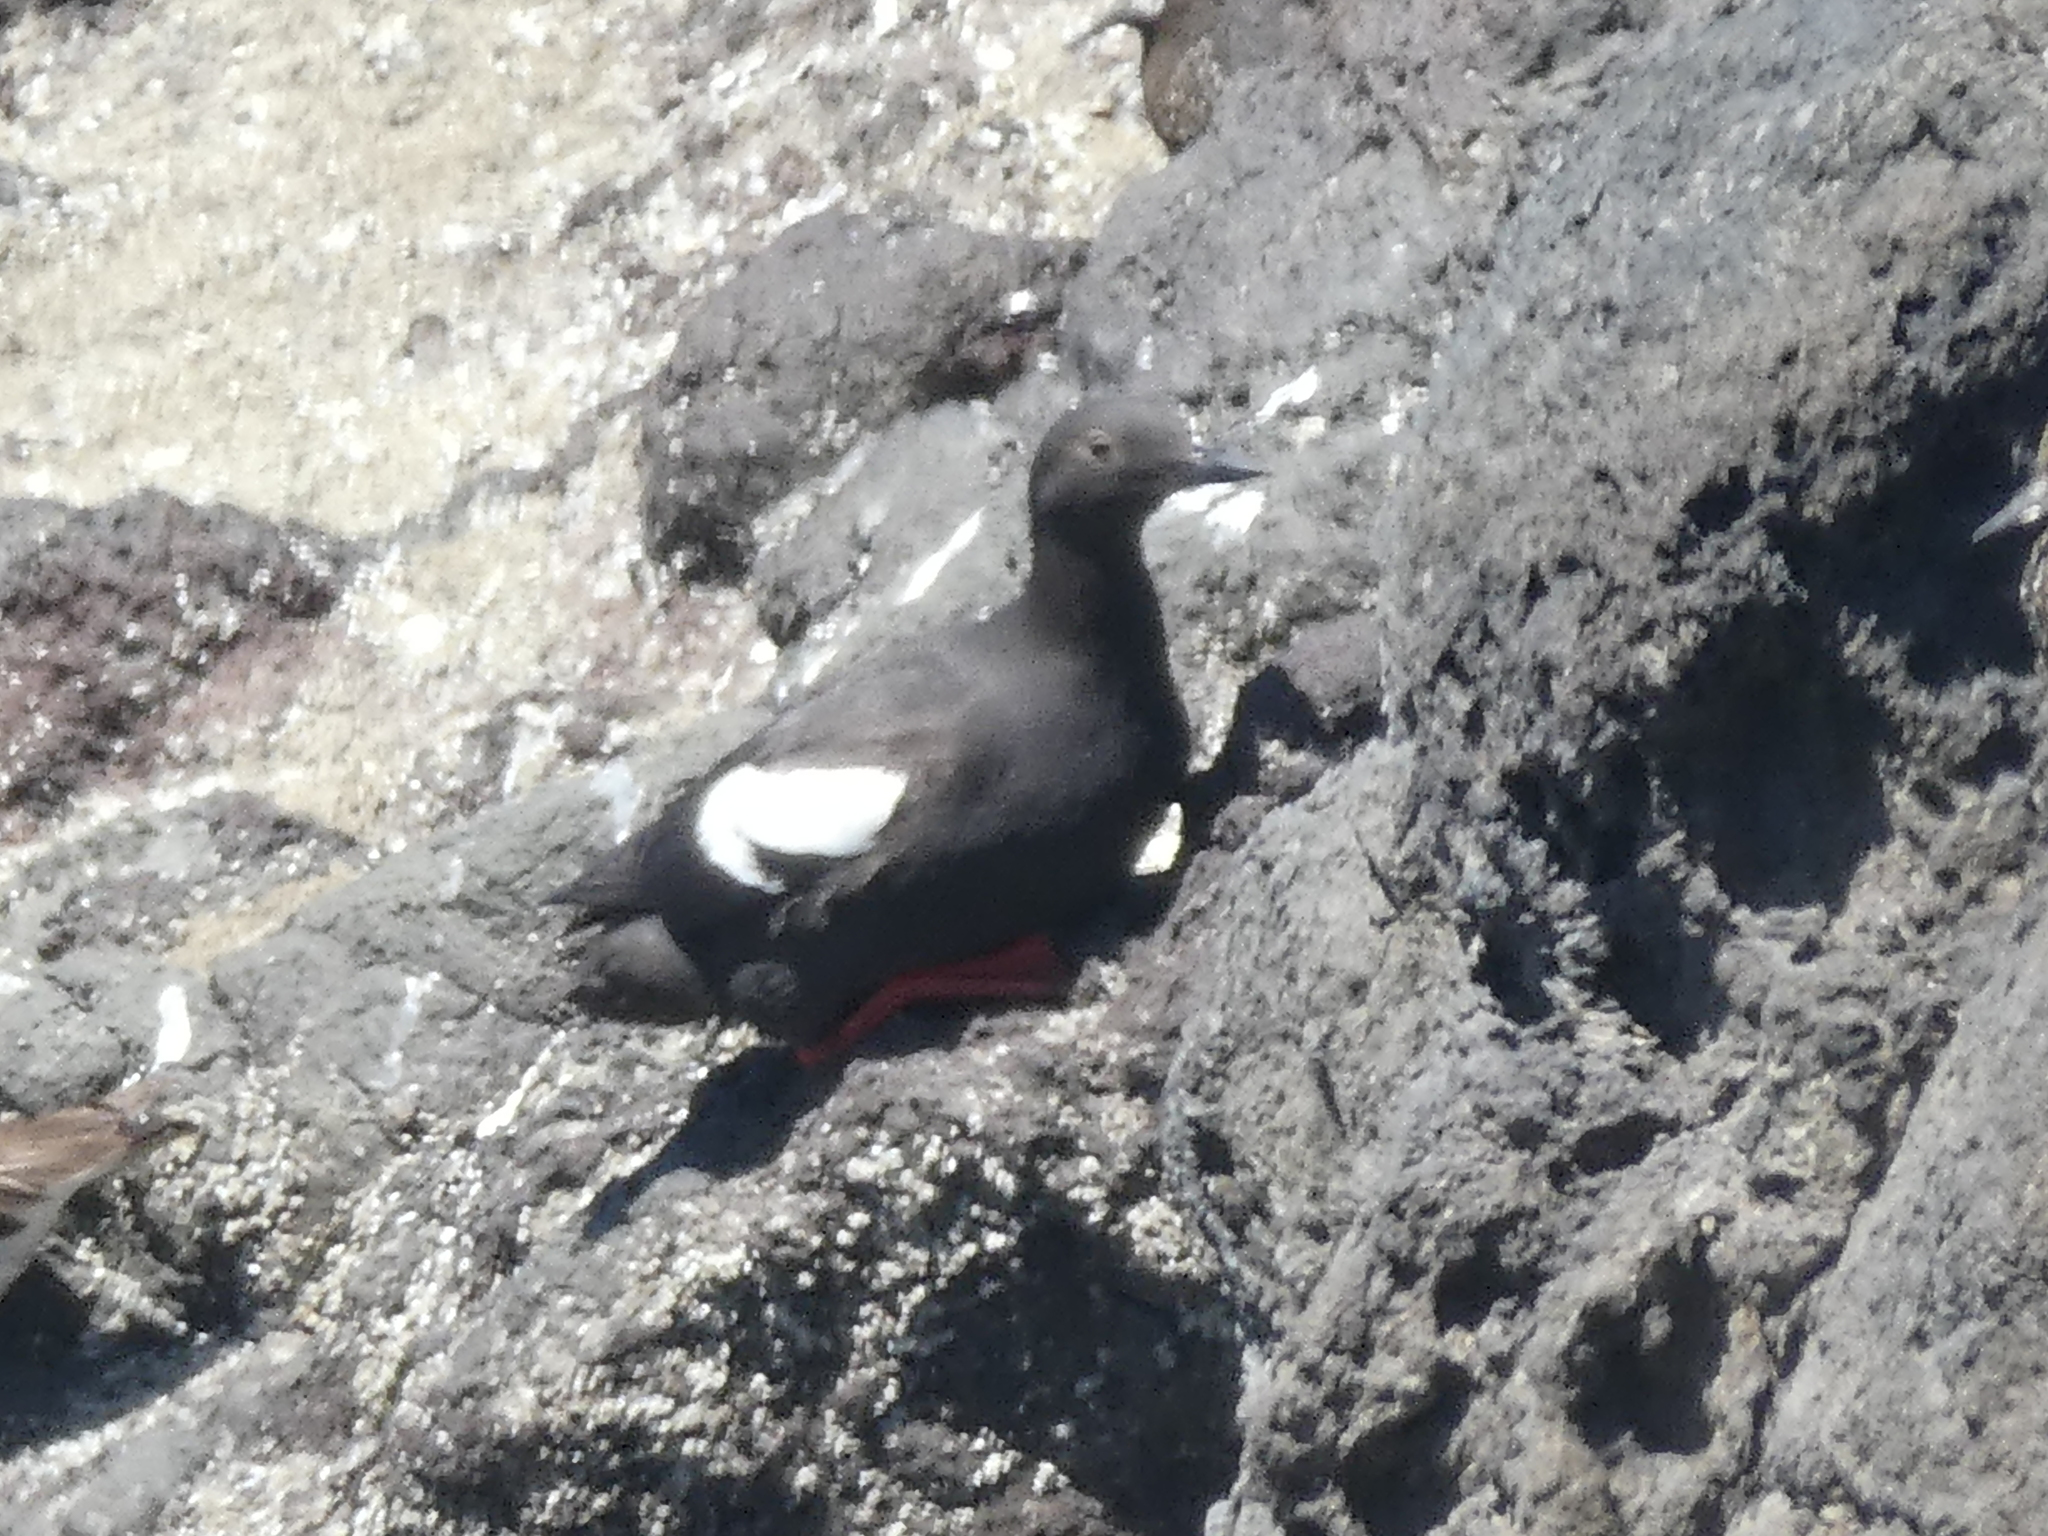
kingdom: Animalia
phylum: Chordata
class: Aves
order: Charadriiformes
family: Alcidae
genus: Cepphus
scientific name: Cepphus columba
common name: Pigeon guillemot
